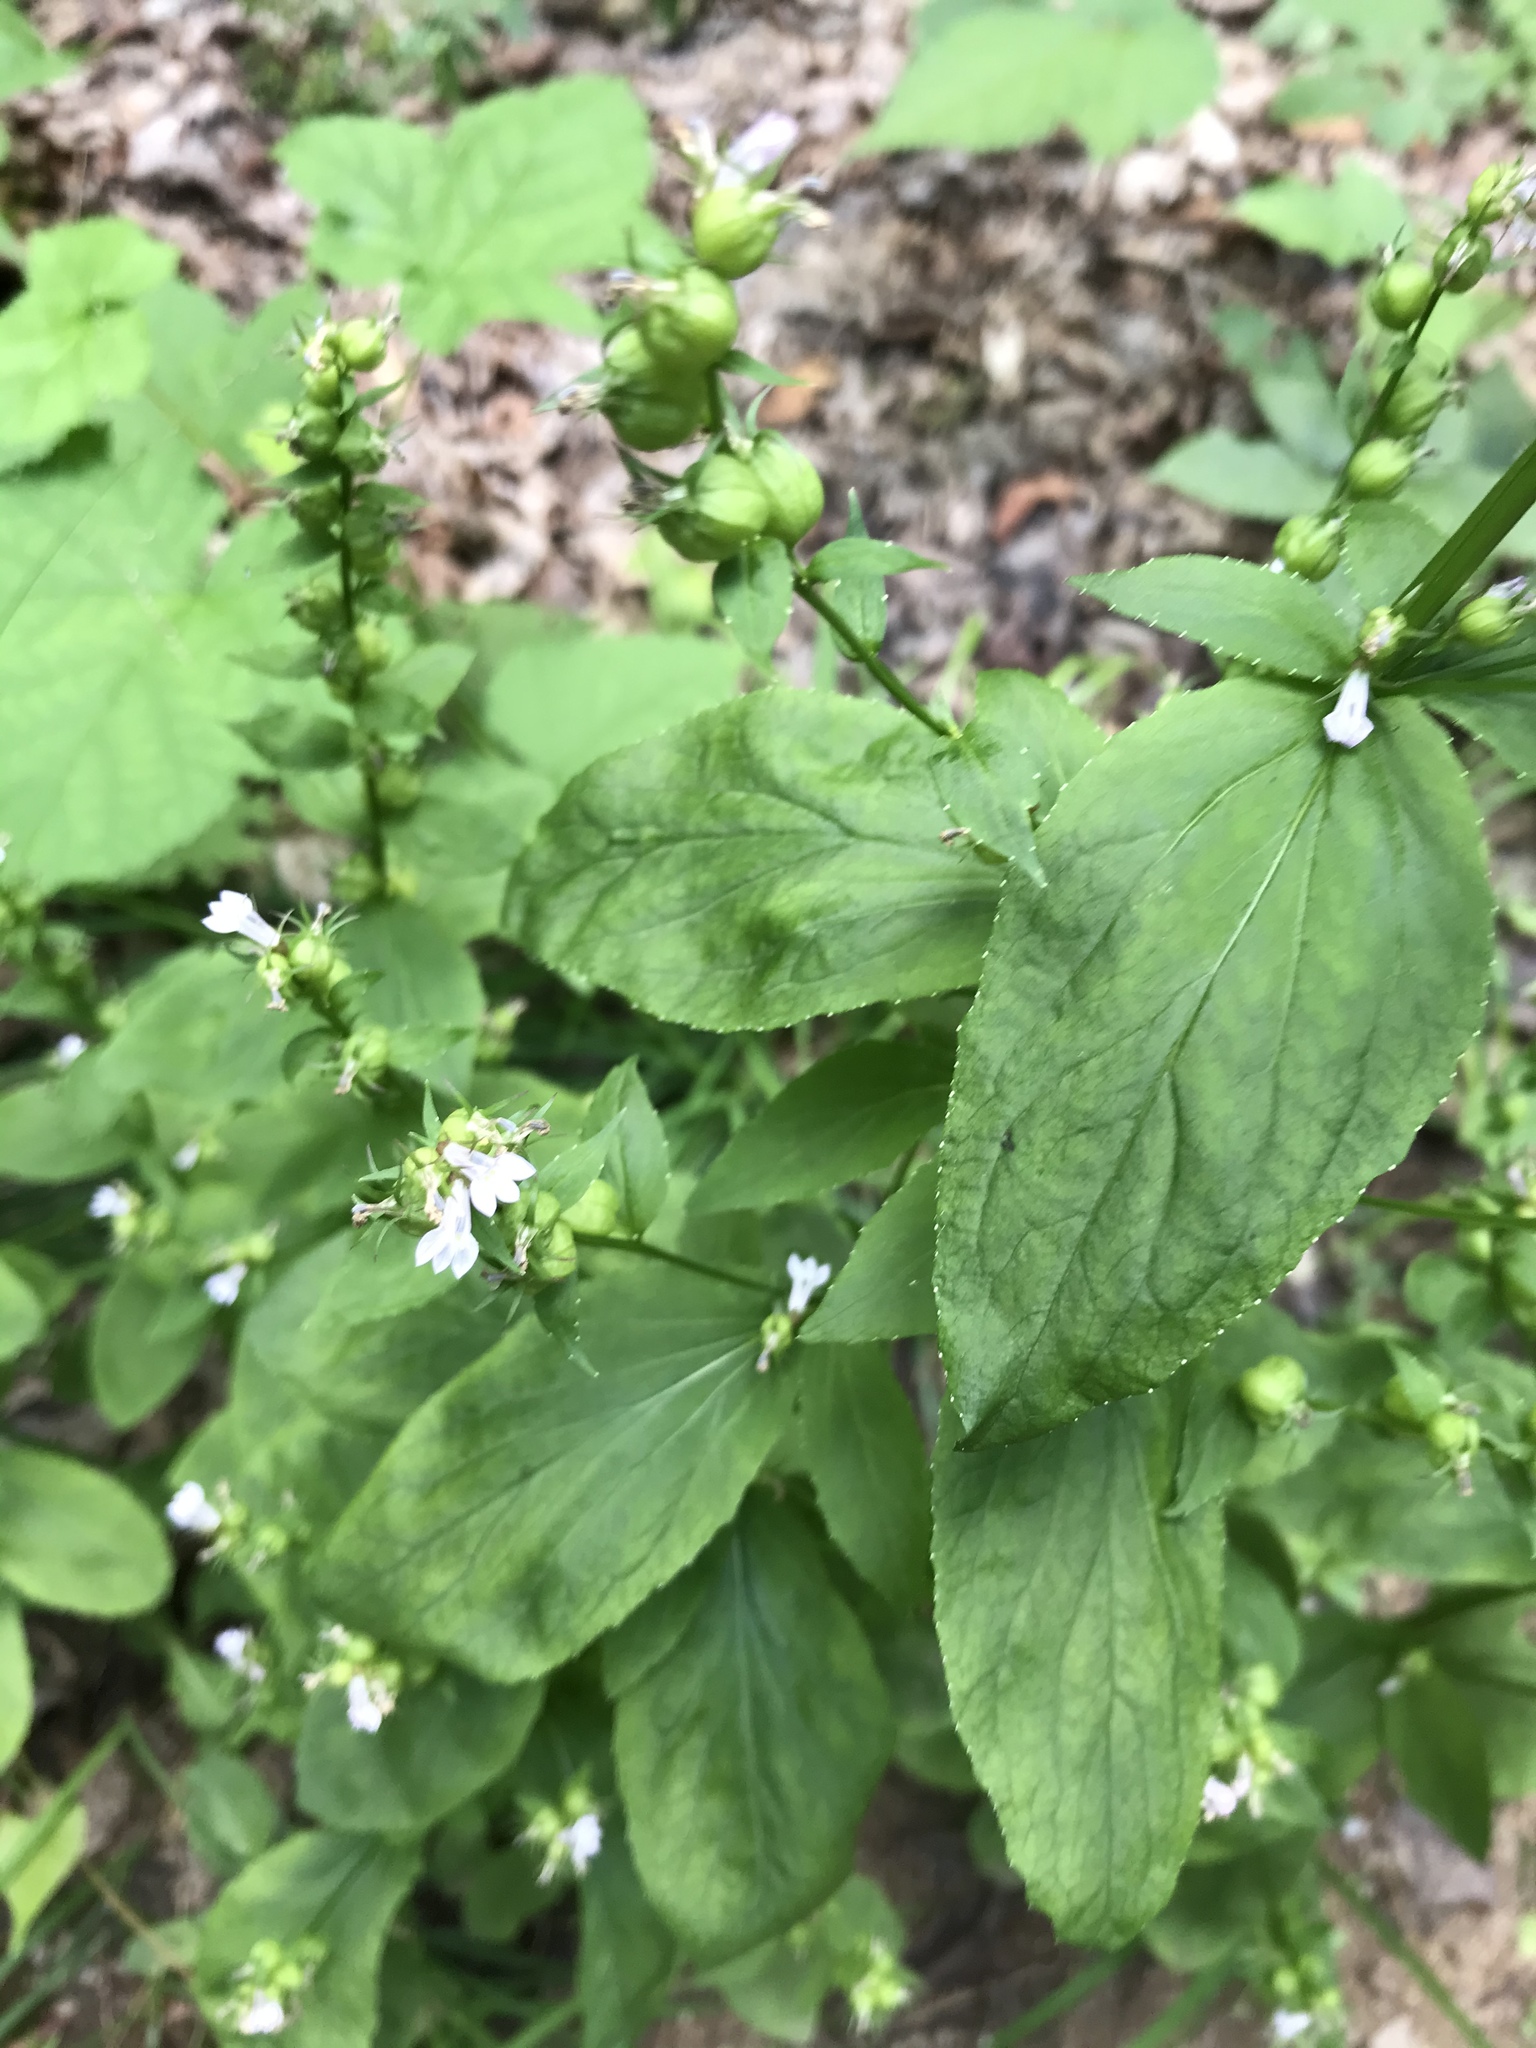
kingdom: Plantae
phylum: Tracheophyta
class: Magnoliopsida
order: Asterales
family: Campanulaceae
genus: Lobelia
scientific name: Lobelia inflata
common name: Indian tobacco
